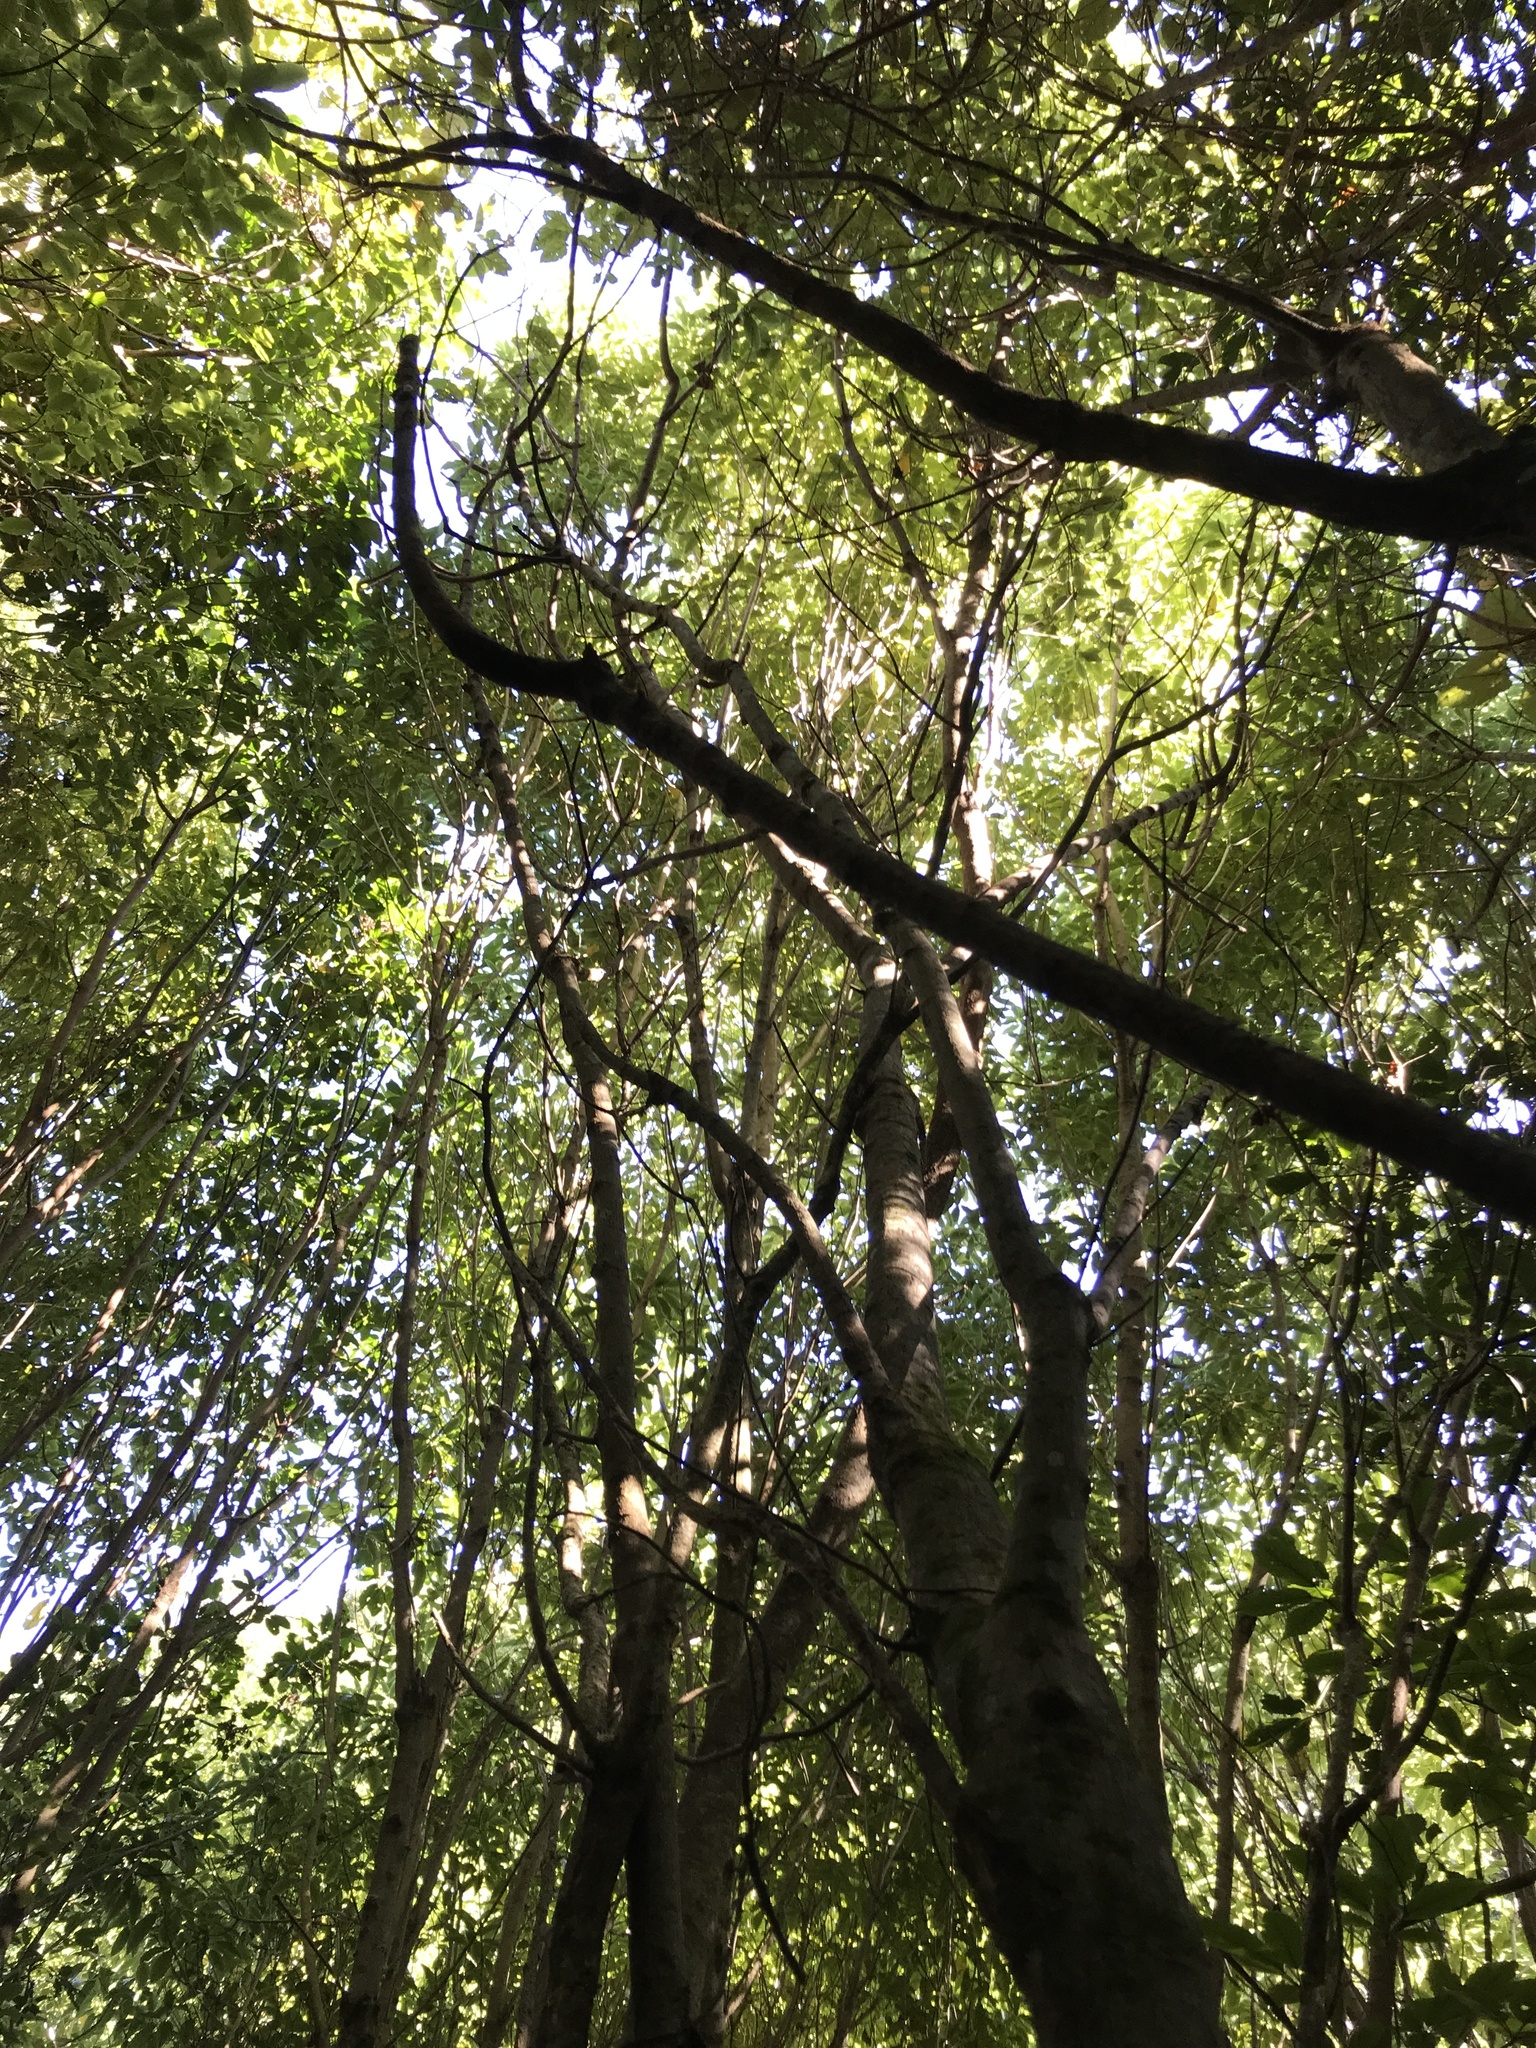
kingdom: Plantae
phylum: Tracheophyta
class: Magnoliopsida
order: Oxalidales
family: Elaeocarpaceae
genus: Aristotelia
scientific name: Aristotelia serrata
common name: New zealand wineberry
